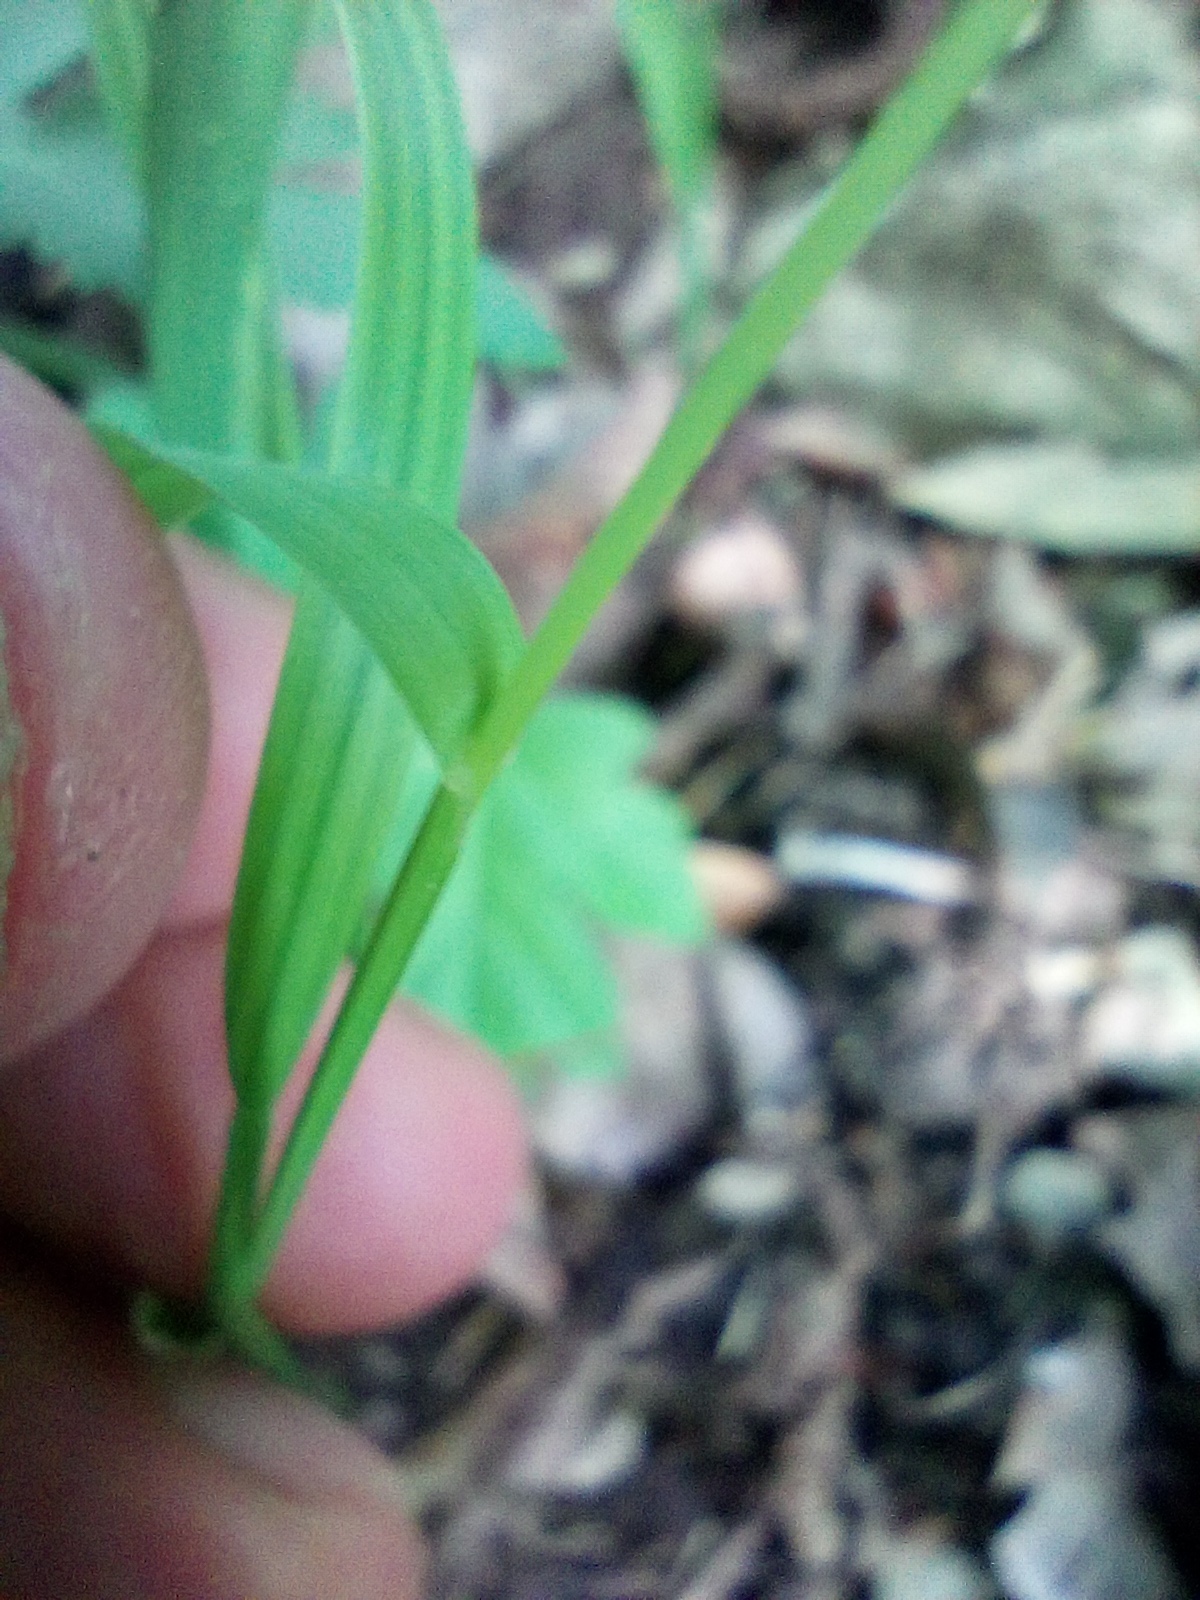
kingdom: Plantae
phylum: Tracheophyta
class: Liliopsida
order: Poales
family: Poaceae
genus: Melica
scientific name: Melica nutans
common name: Mountain melick
